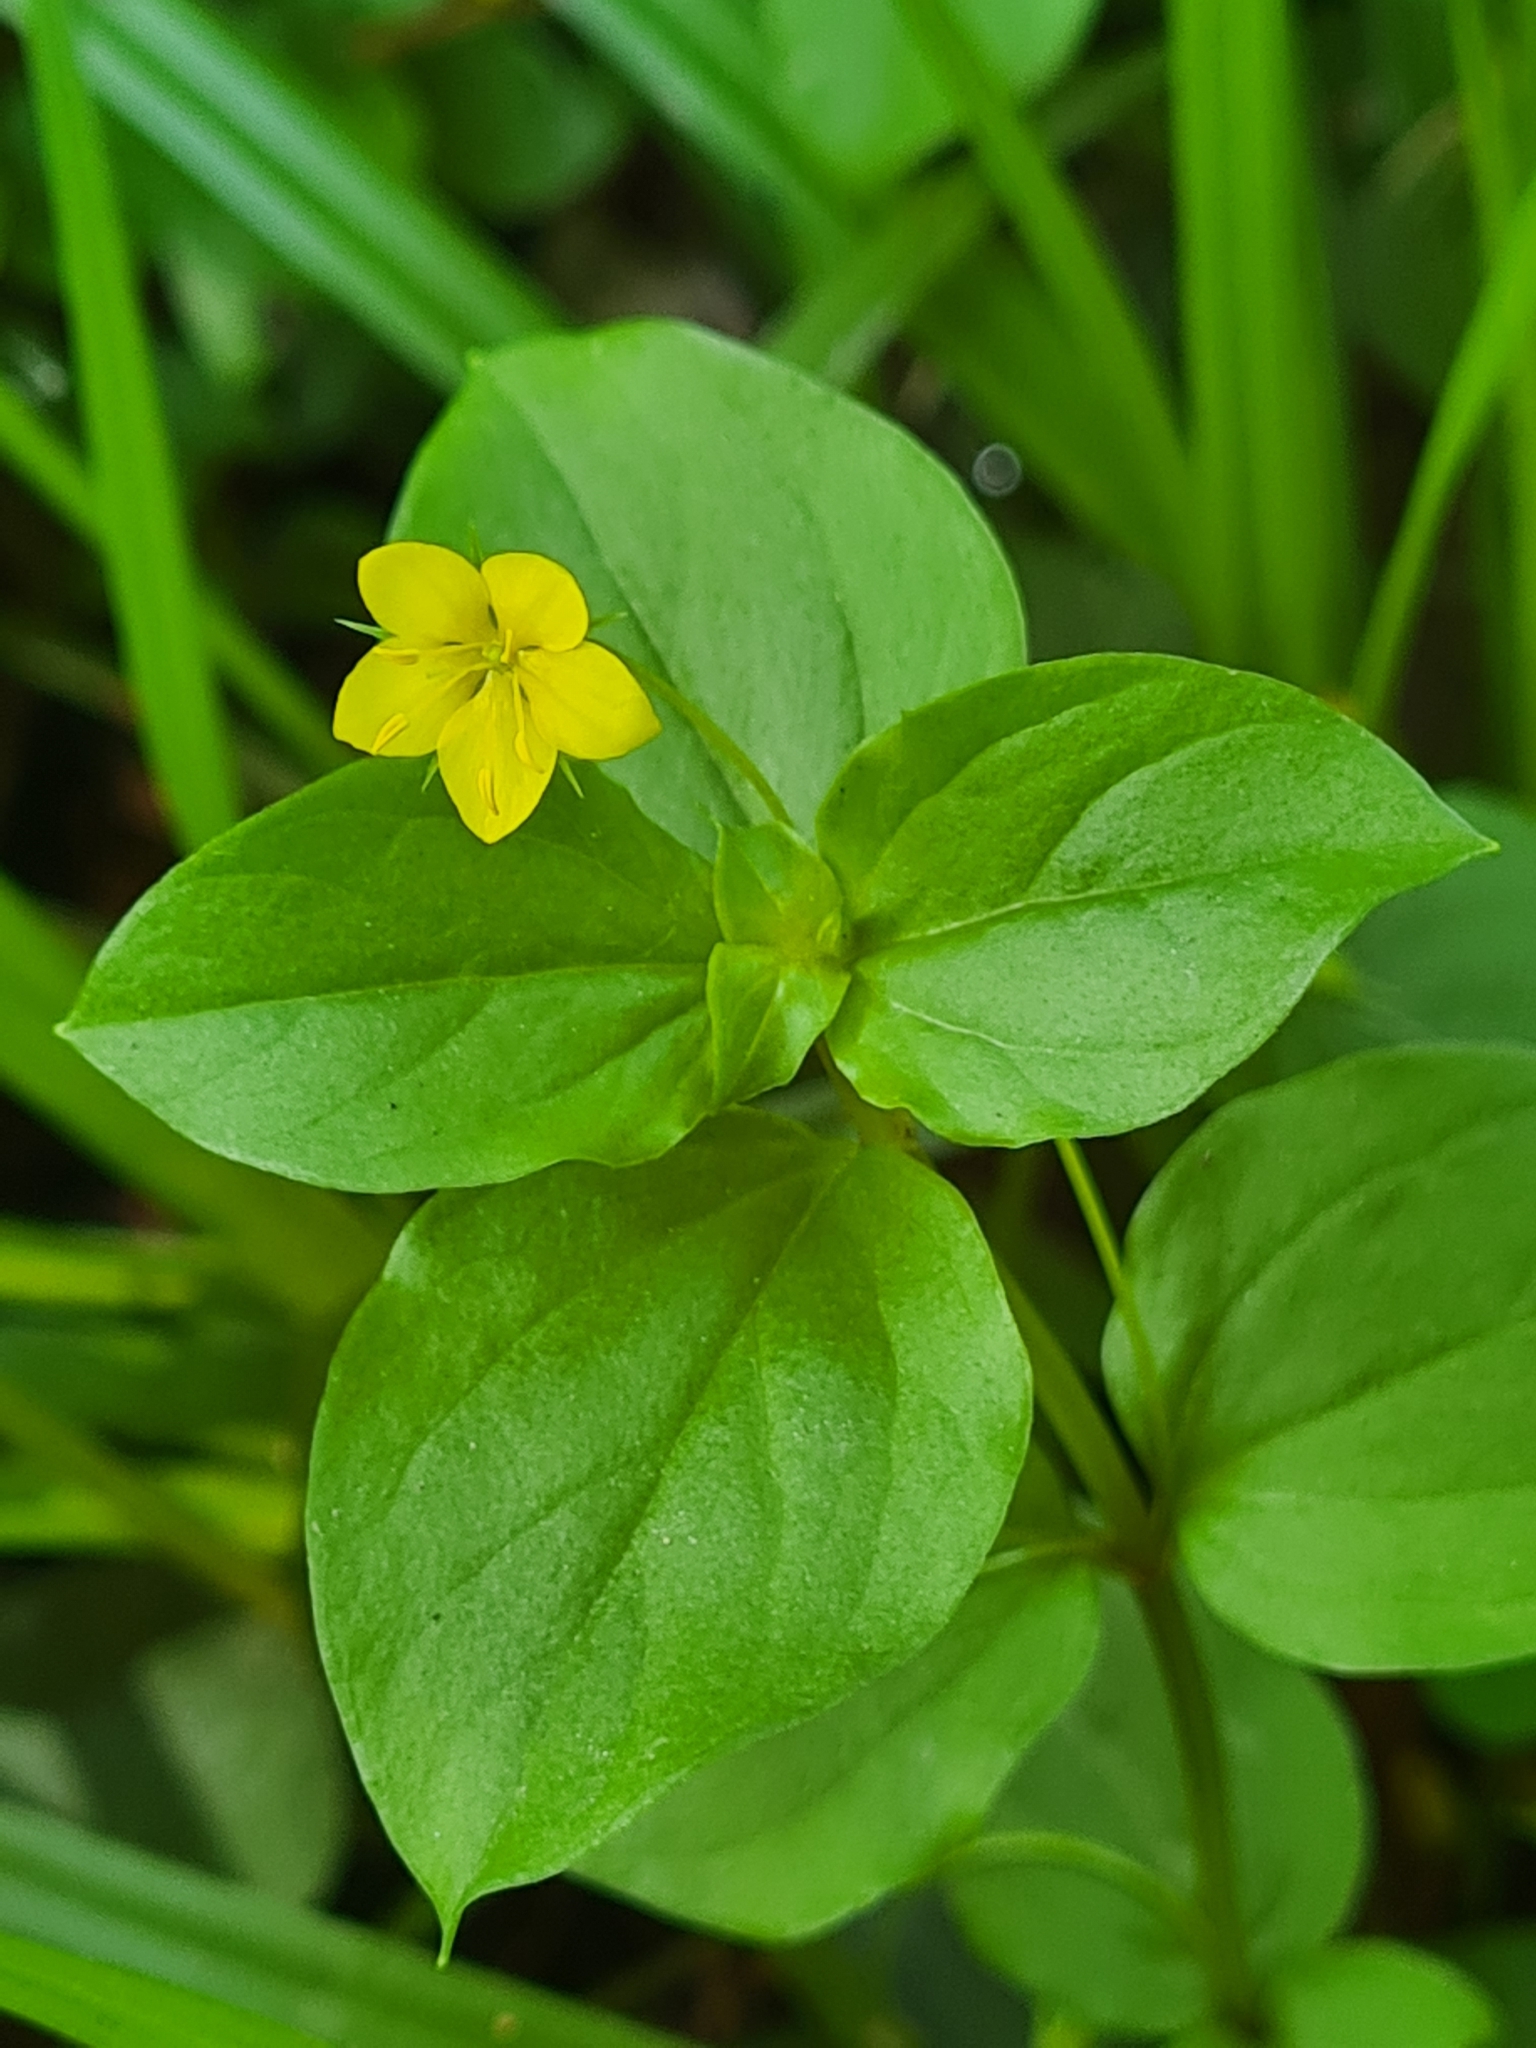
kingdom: Plantae
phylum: Tracheophyta
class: Magnoliopsida
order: Ericales
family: Primulaceae
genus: Lysimachia
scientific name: Lysimachia nemorum
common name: Yellow pimpernel
